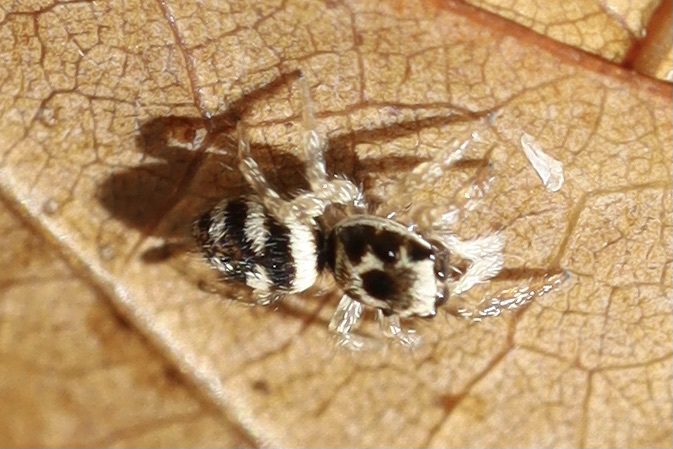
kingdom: Animalia
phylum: Arthropoda
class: Arachnida
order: Araneae
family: Salticidae
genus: Salticus
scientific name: Salticus scenicus
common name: Zebra jumper
